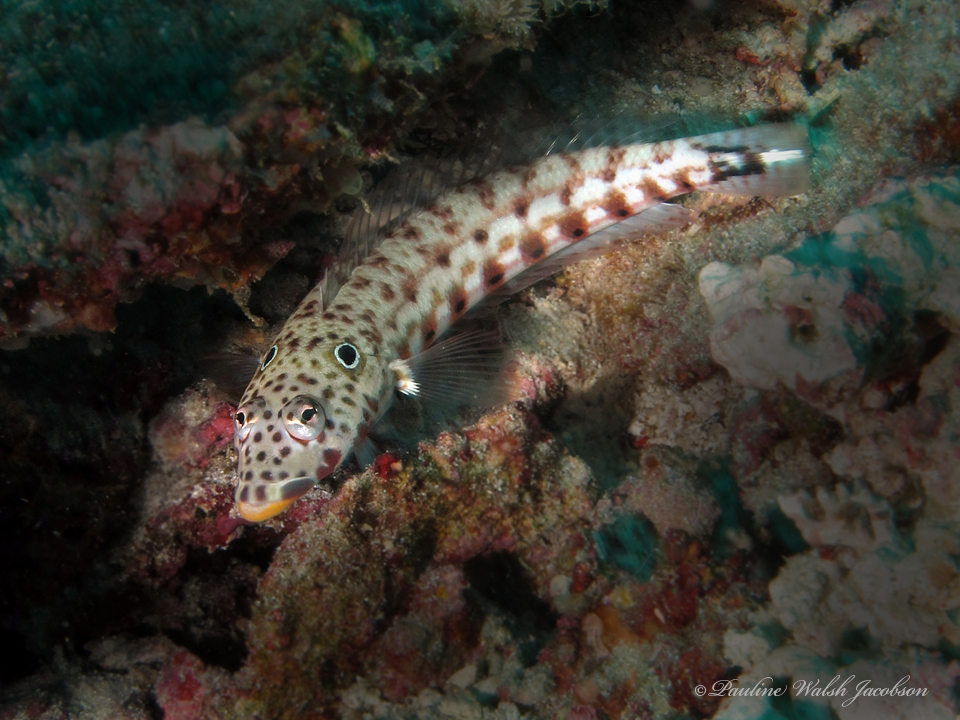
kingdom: Animalia
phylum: Chordata
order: Perciformes
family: Pinguipedidae
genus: Parapercis
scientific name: Parapercis clathrata
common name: Latticed sandperch
